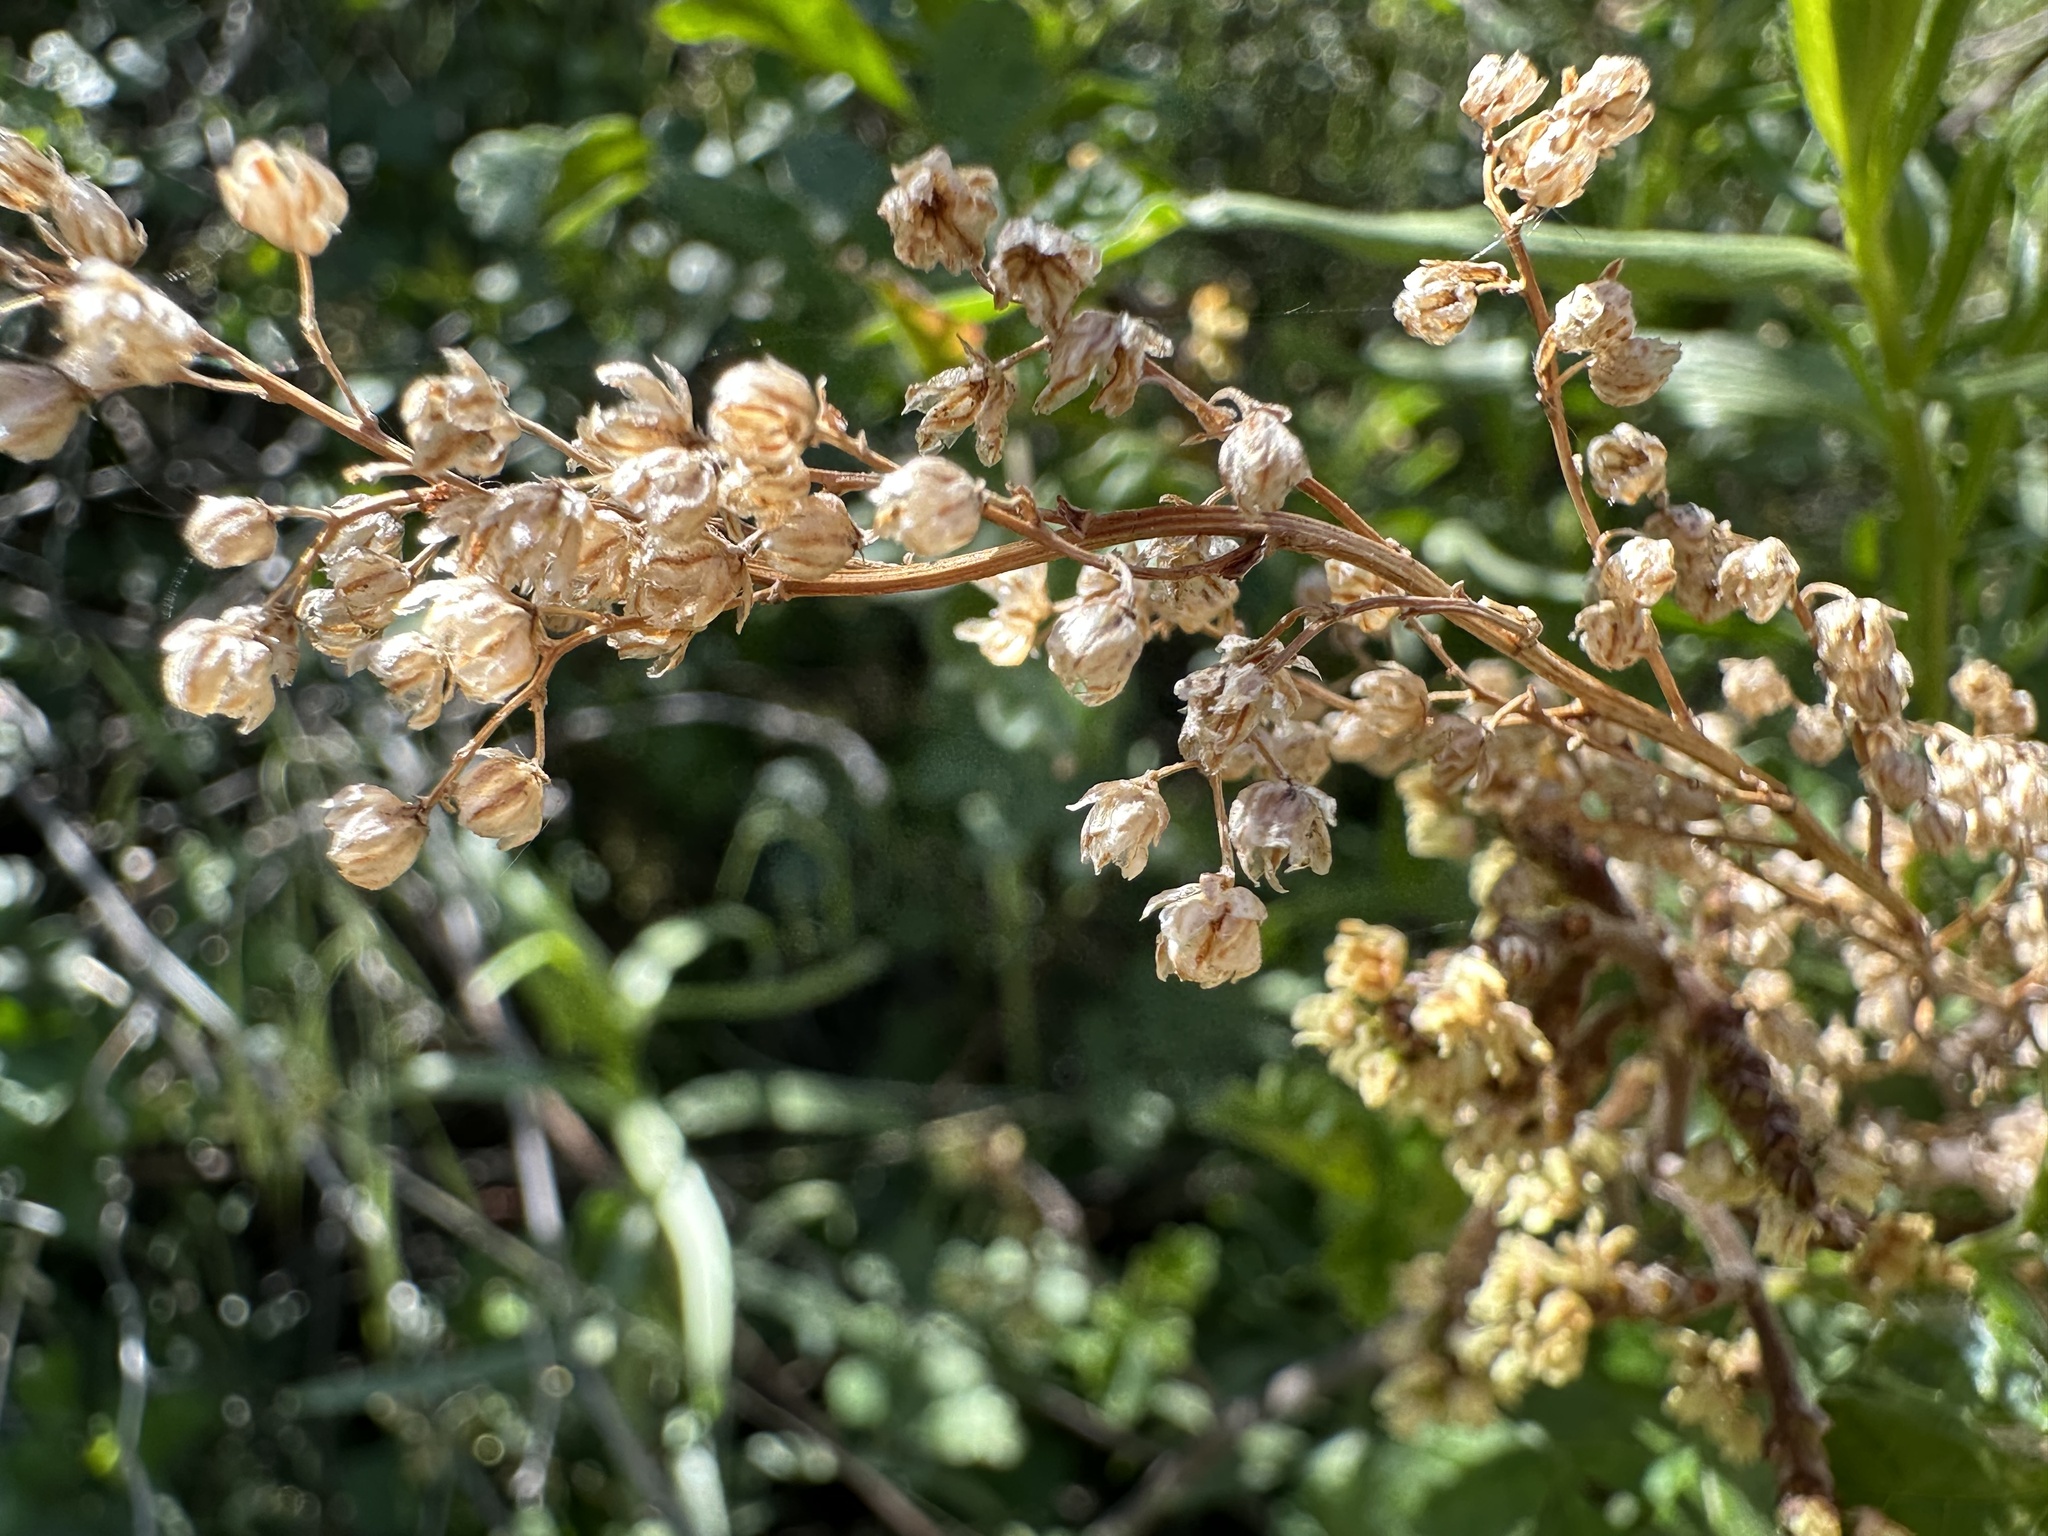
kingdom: Plantae
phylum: Tracheophyta
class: Magnoliopsida
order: Sapindales
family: Anacardiaceae
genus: Rhus
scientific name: Rhus aromatica
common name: Aromatic sumac
